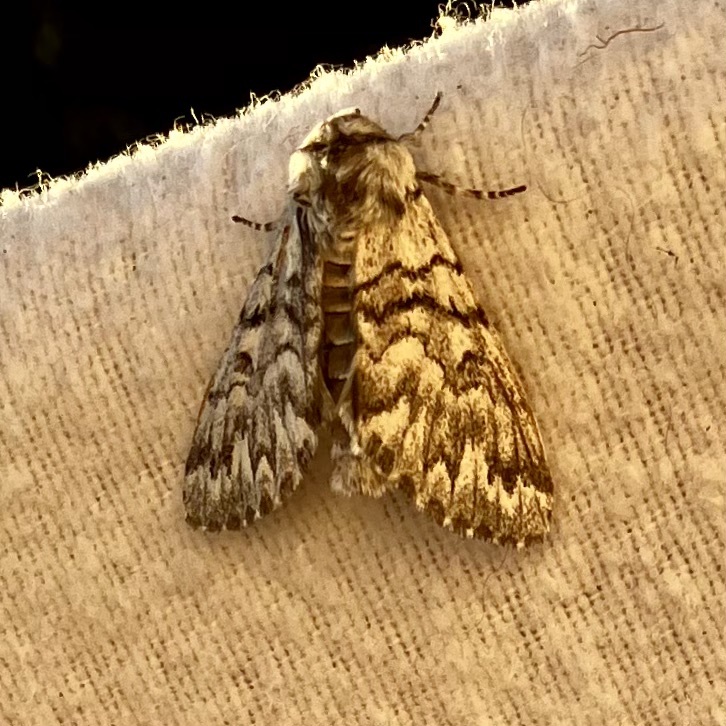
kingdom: Animalia
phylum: Arthropoda
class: Insecta
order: Lepidoptera
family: Noctuidae
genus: Panthea
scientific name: Panthea virginarius
